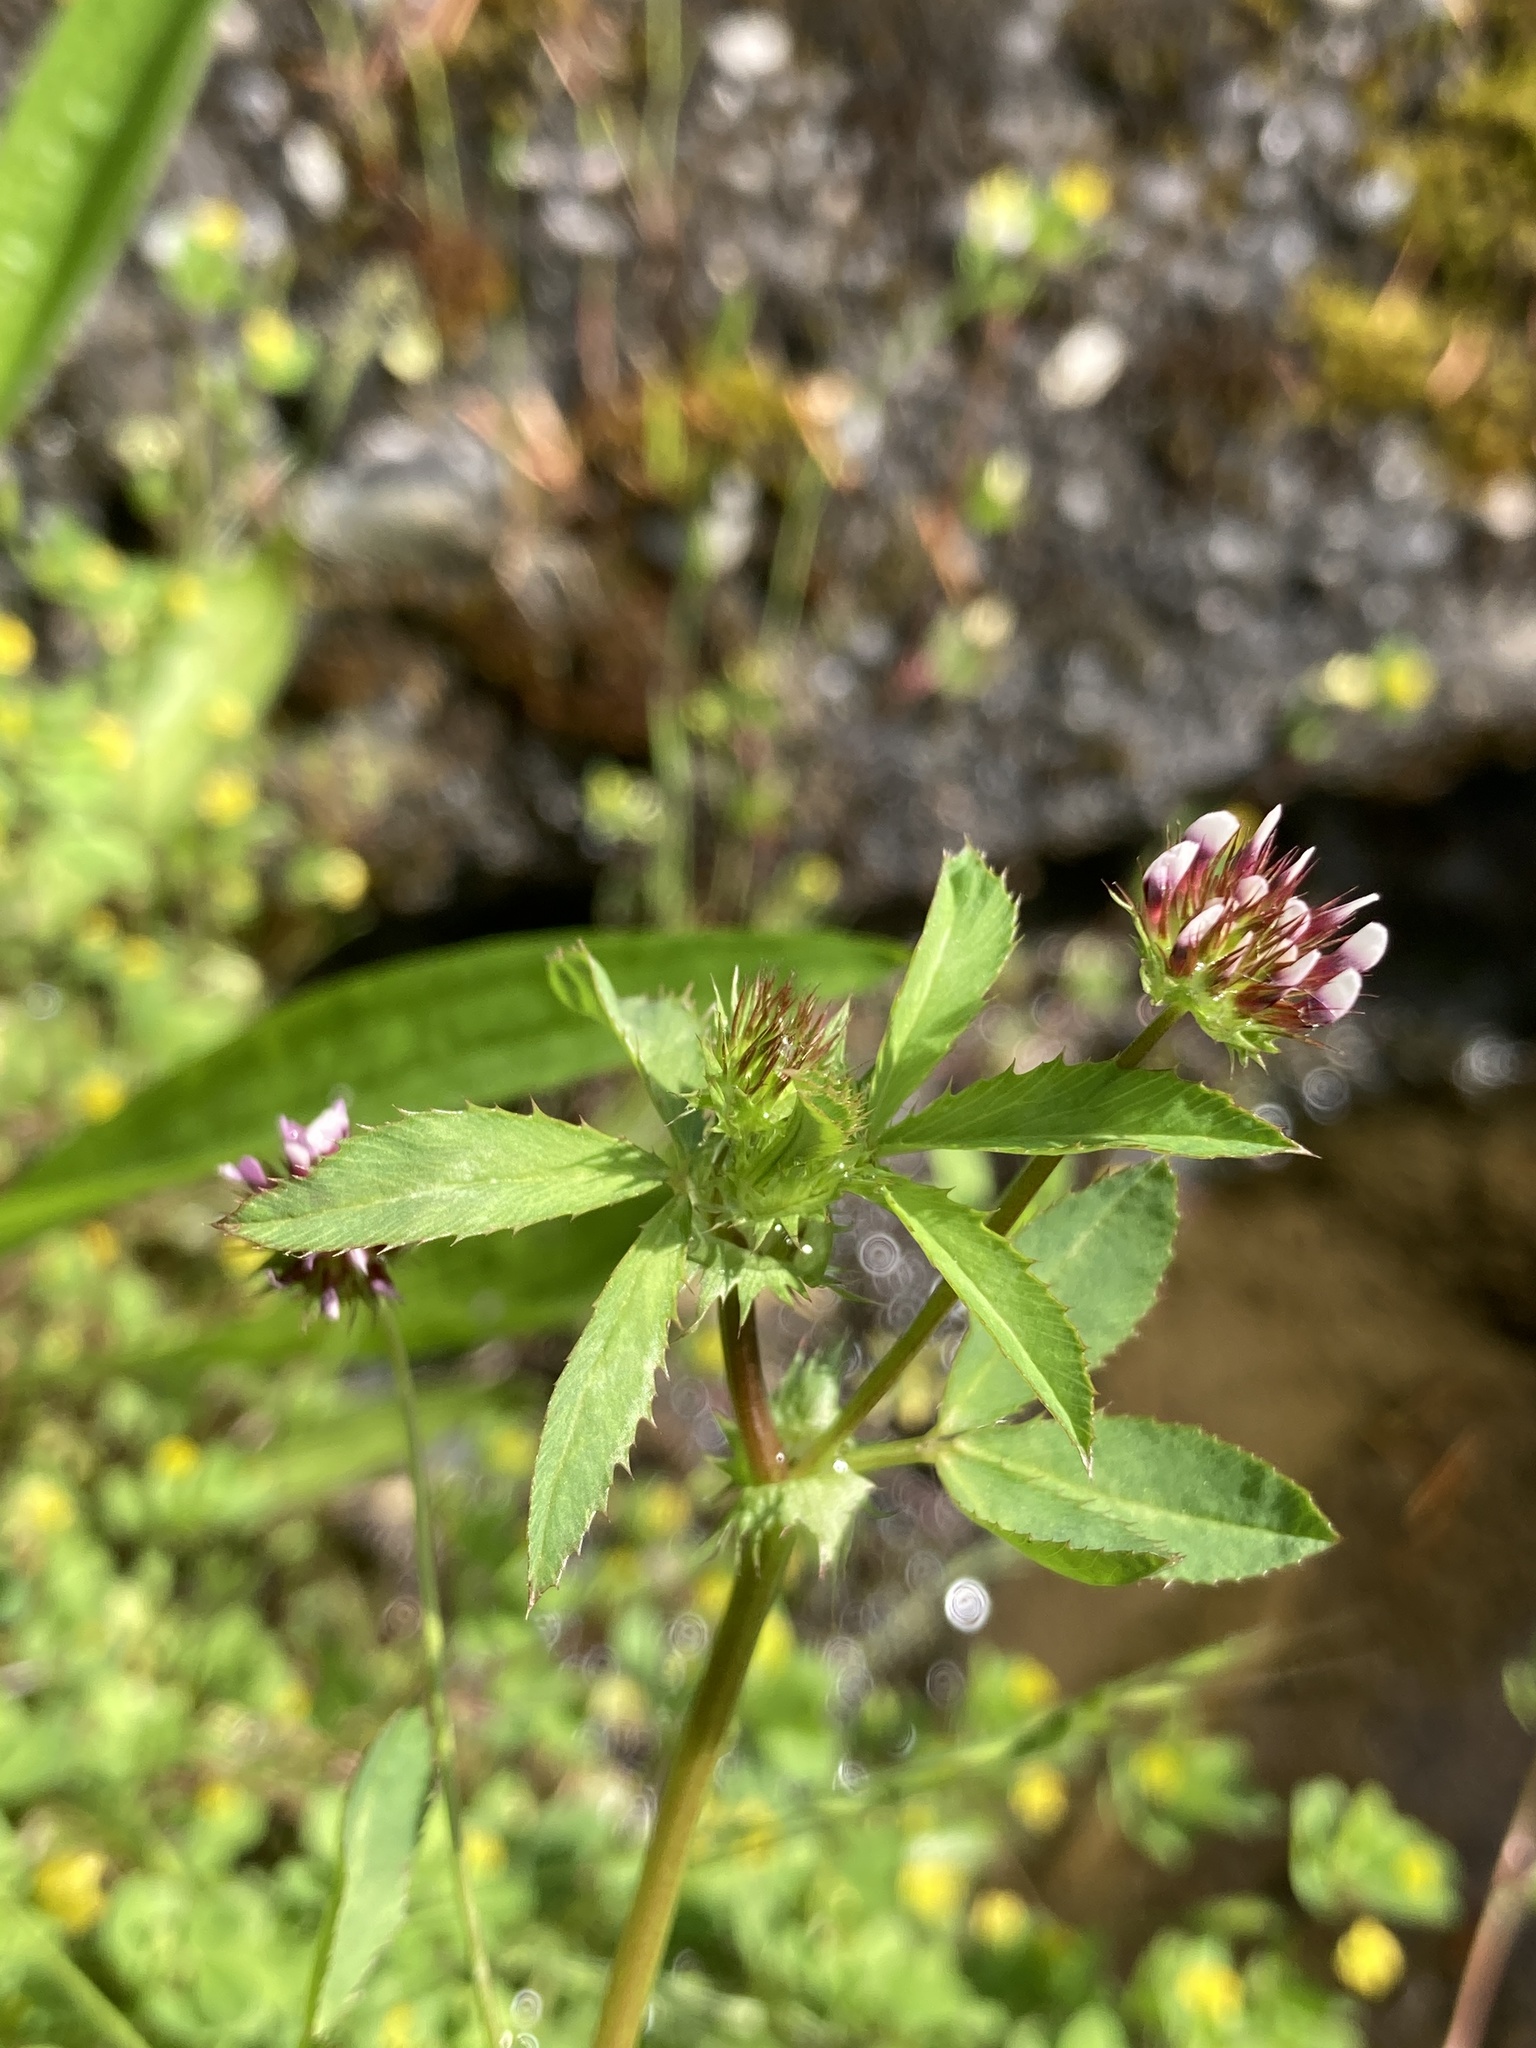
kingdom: Plantae
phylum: Tracheophyta
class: Magnoliopsida
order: Fabales
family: Fabaceae
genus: Trifolium
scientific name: Trifolium variegatum
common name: Whitetip clover
